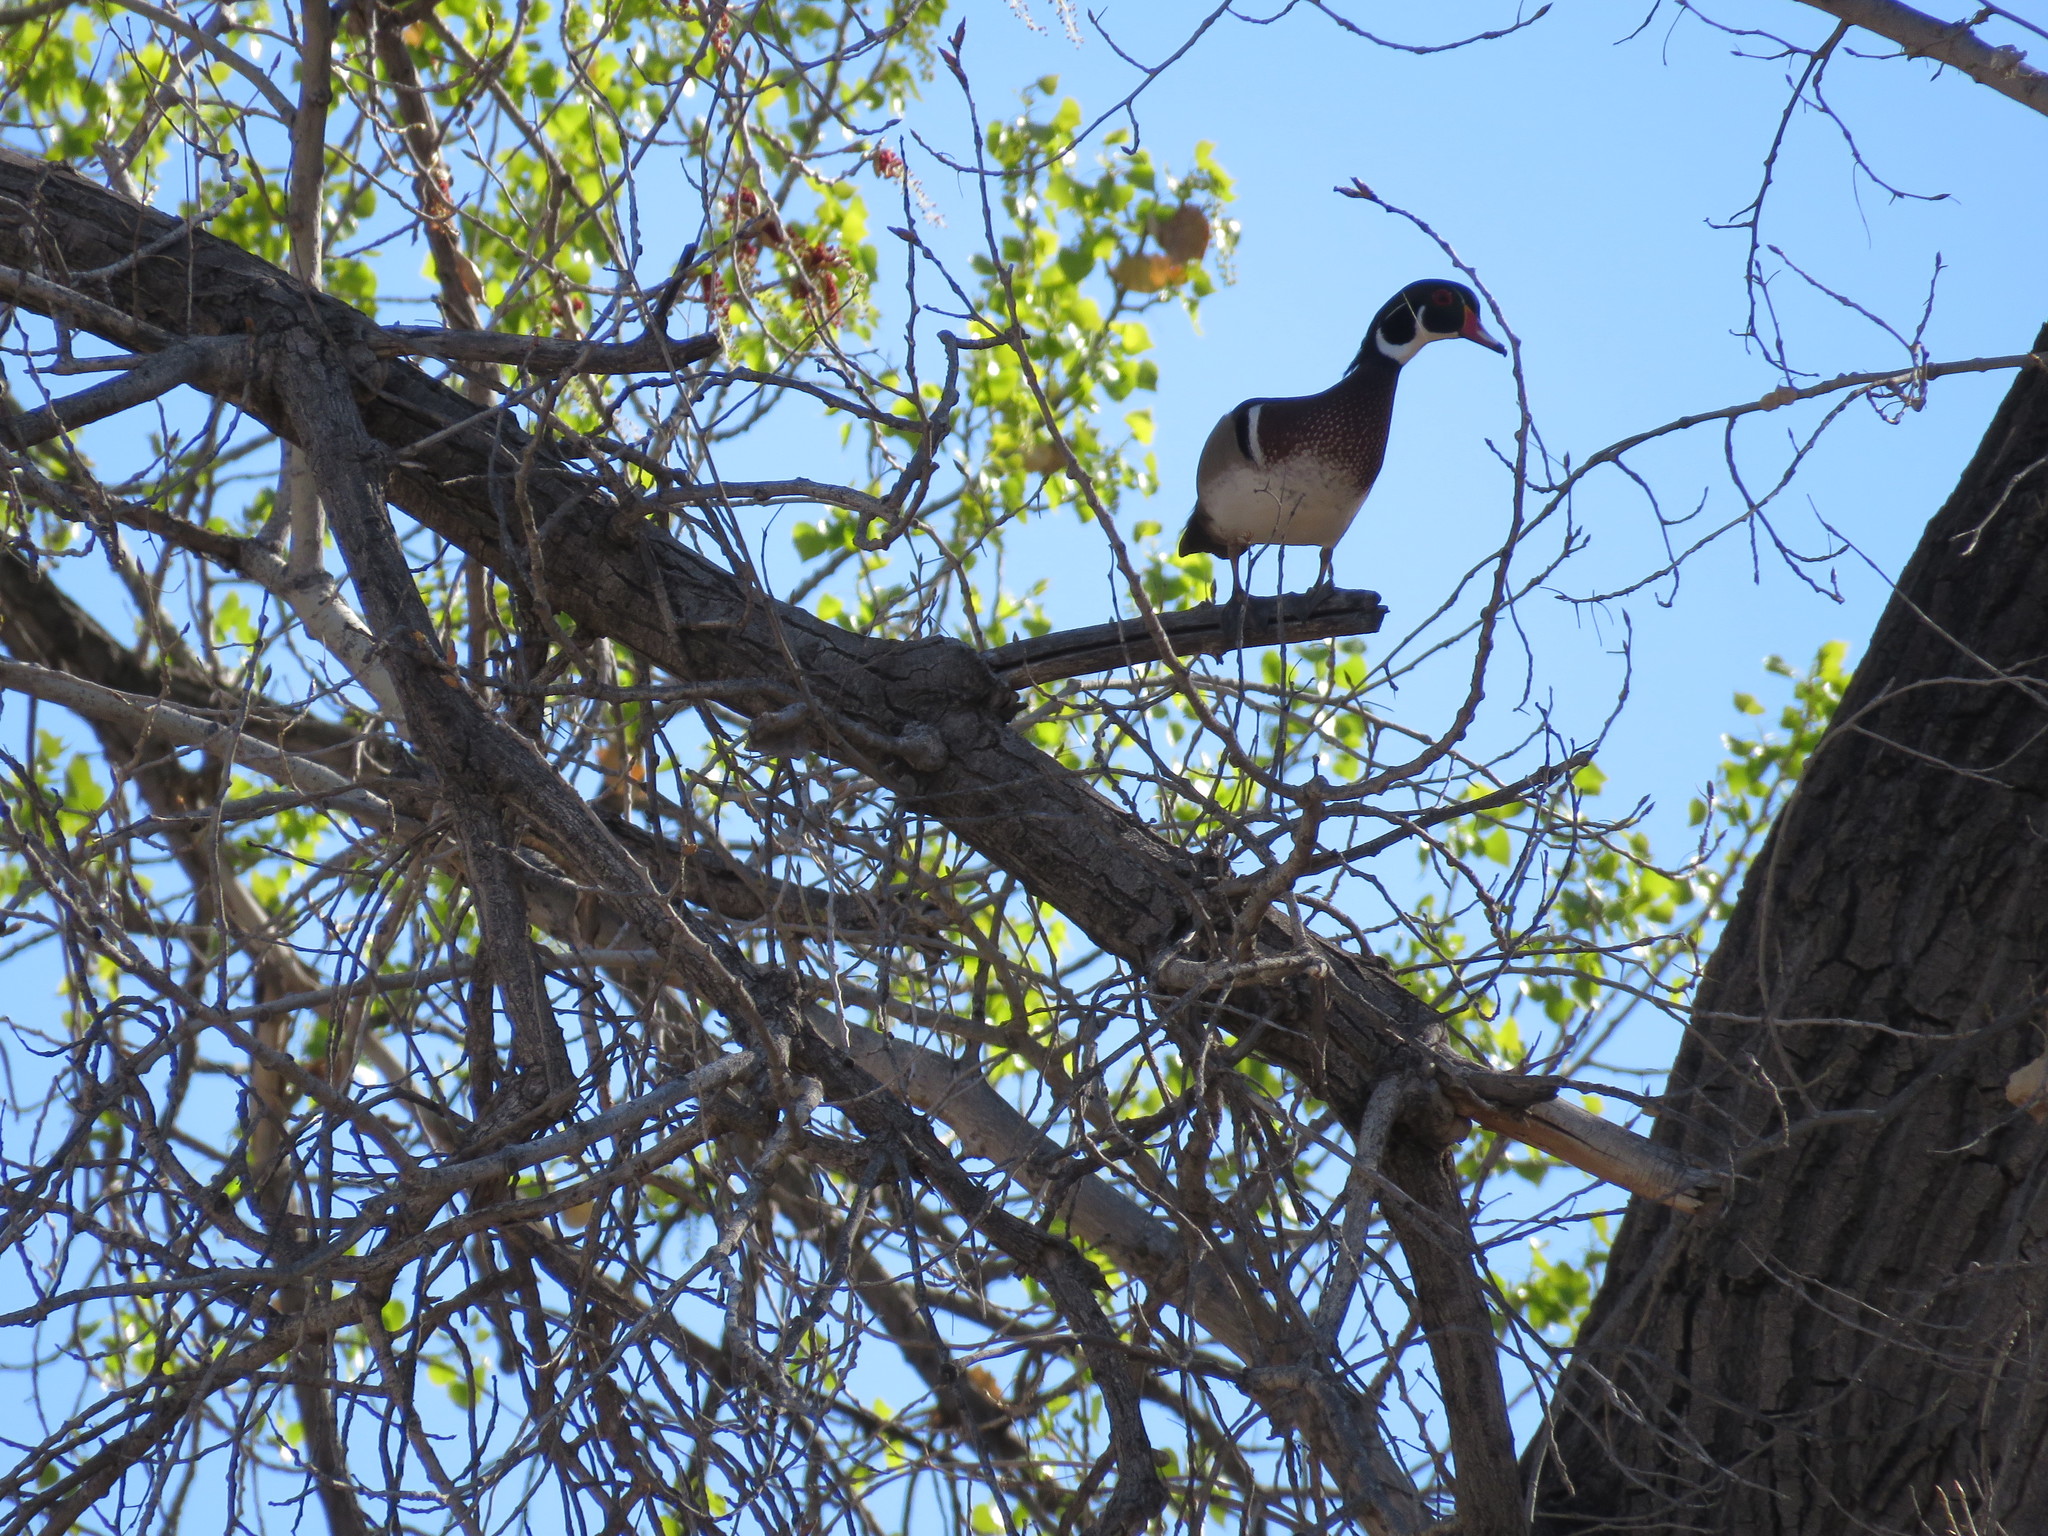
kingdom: Animalia
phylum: Chordata
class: Aves
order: Anseriformes
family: Anatidae
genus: Aix
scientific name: Aix sponsa
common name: Wood duck
